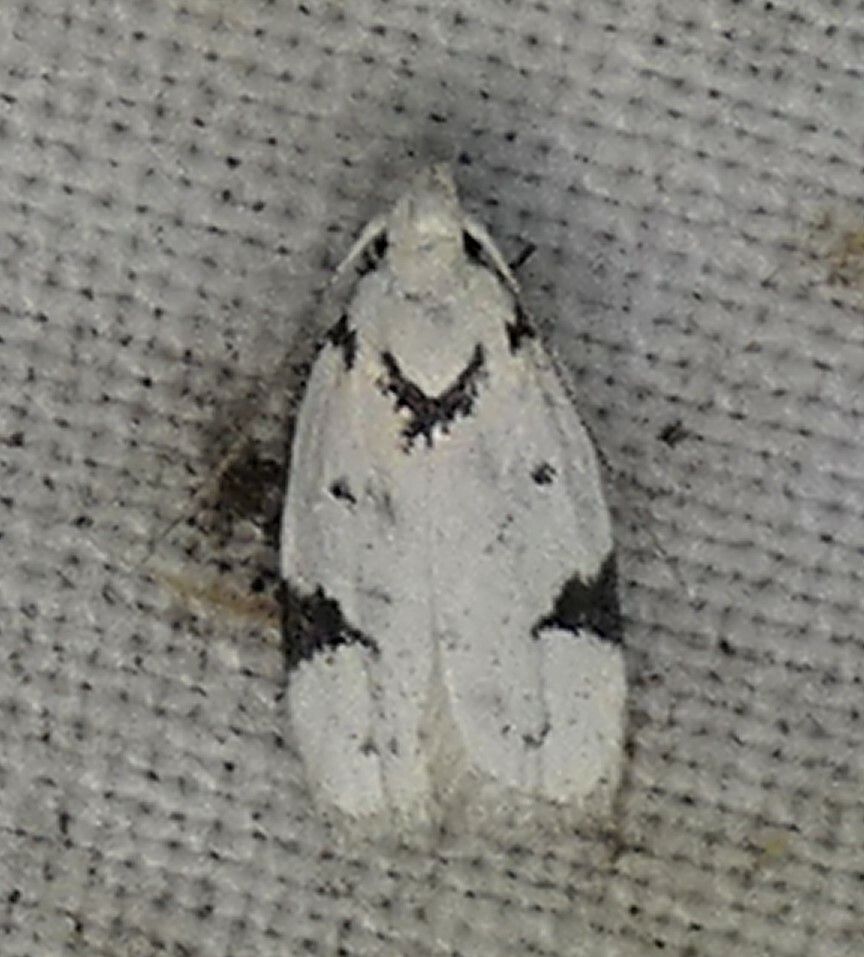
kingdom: Animalia
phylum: Arthropoda
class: Insecta
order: Lepidoptera
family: Oecophoridae
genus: Inga
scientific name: Inga sparsiciliella
